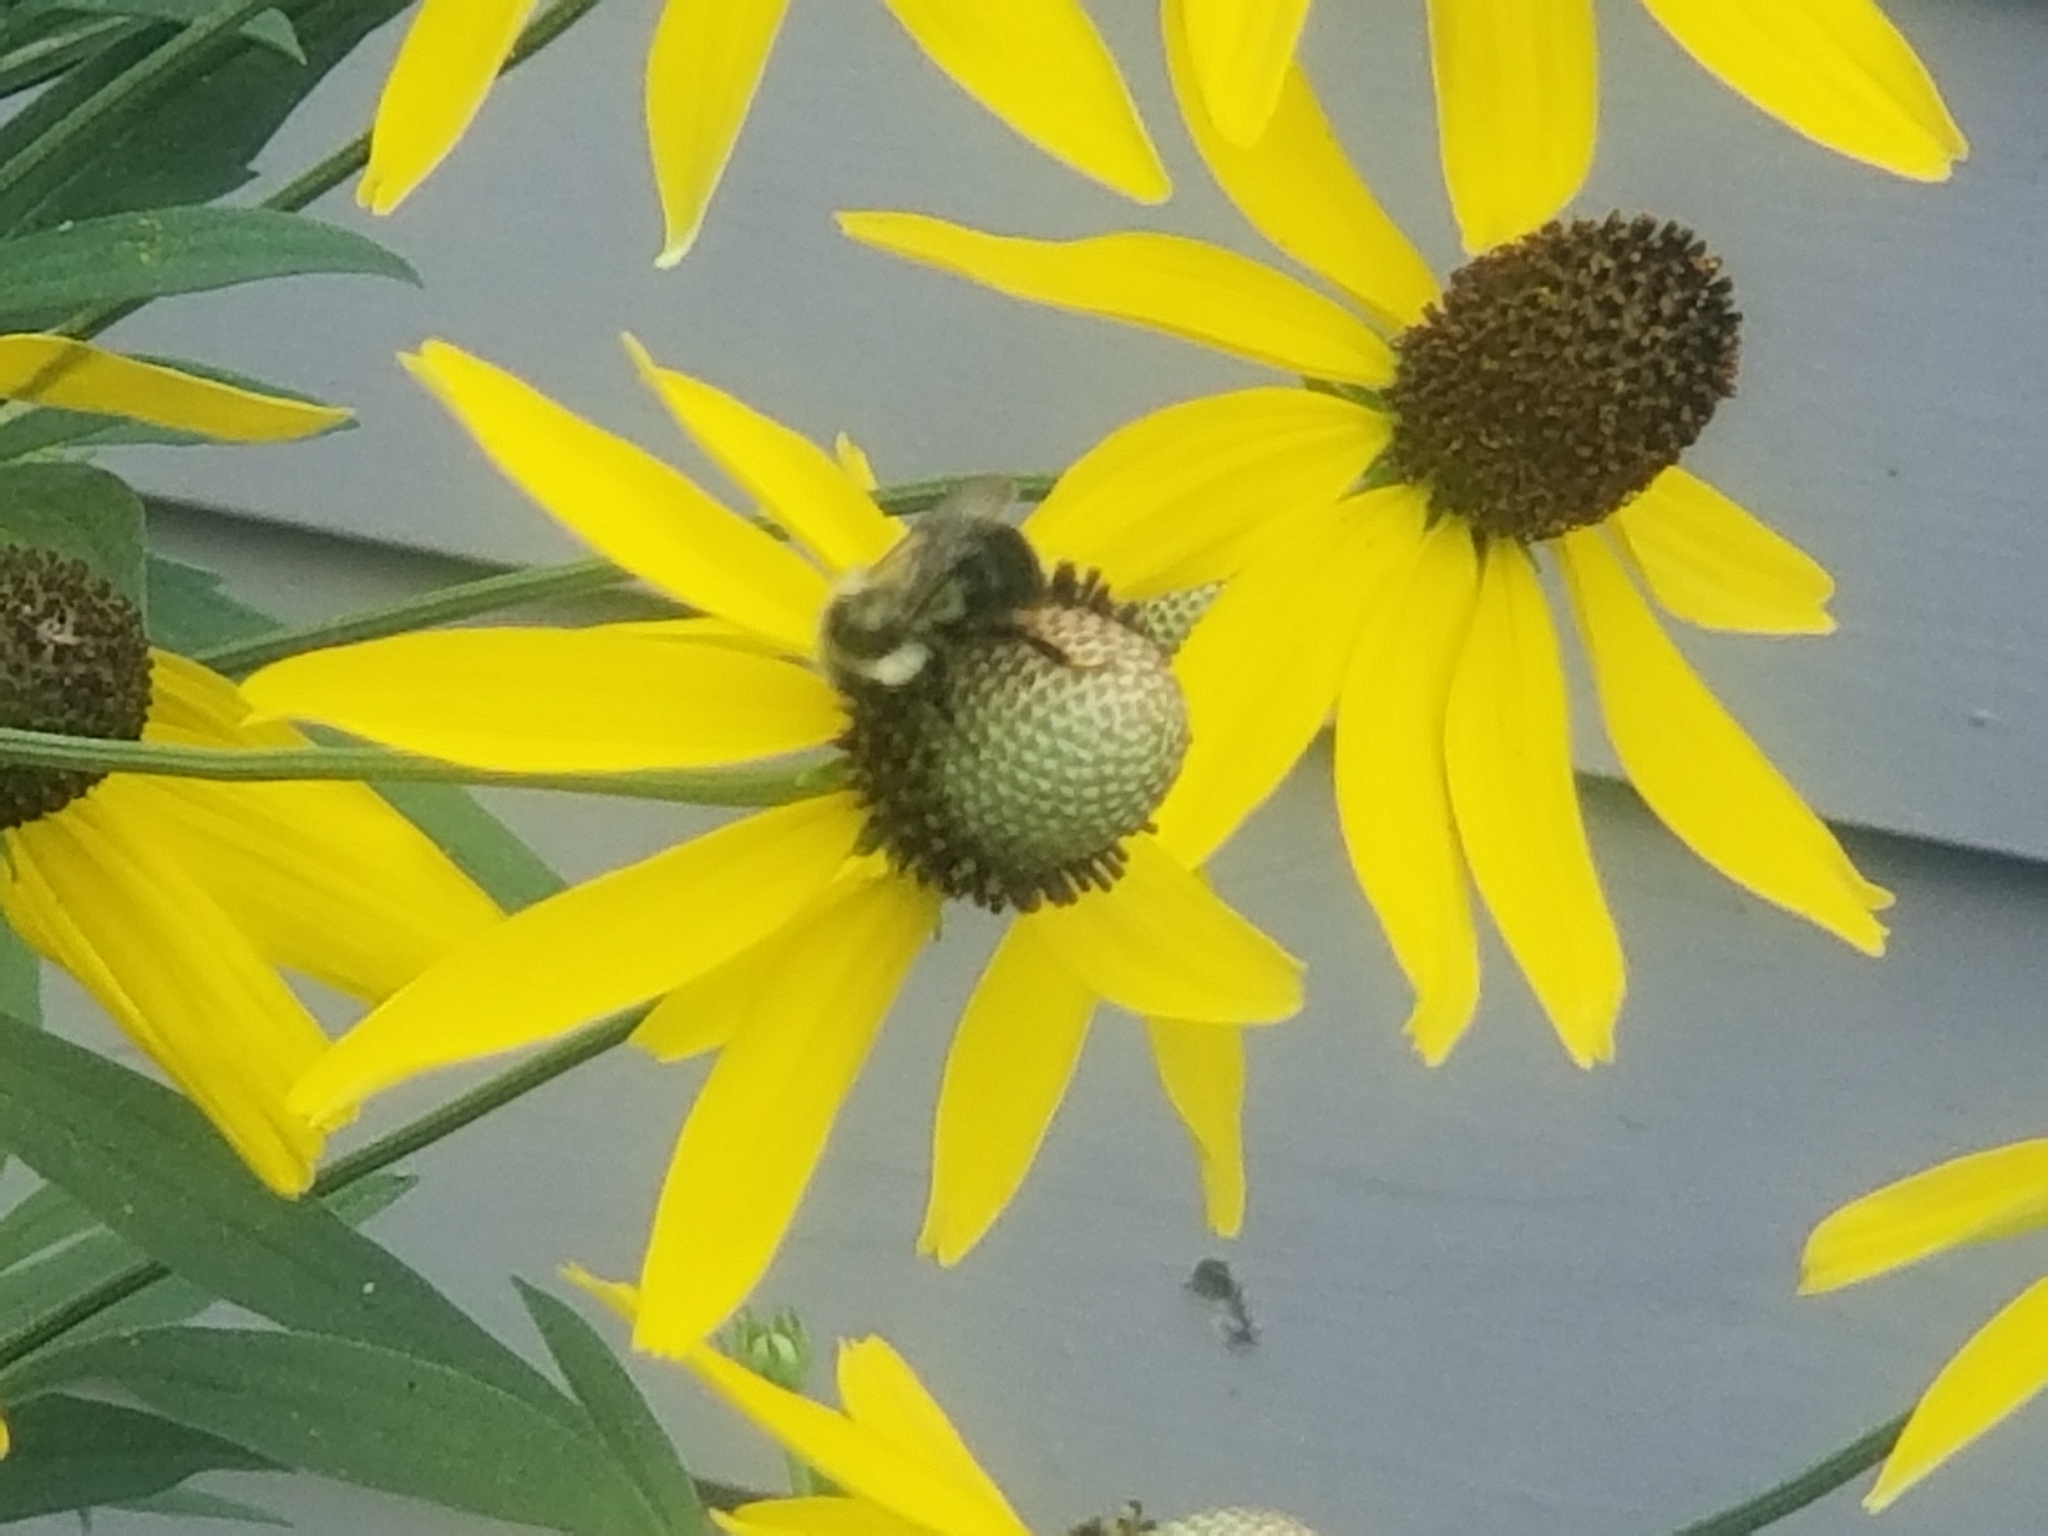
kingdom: Animalia
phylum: Arthropoda
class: Insecta
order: Hymenoptera
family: Apidae
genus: Bombus
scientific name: Bombus impatiens
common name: Common eastern bumble bee
